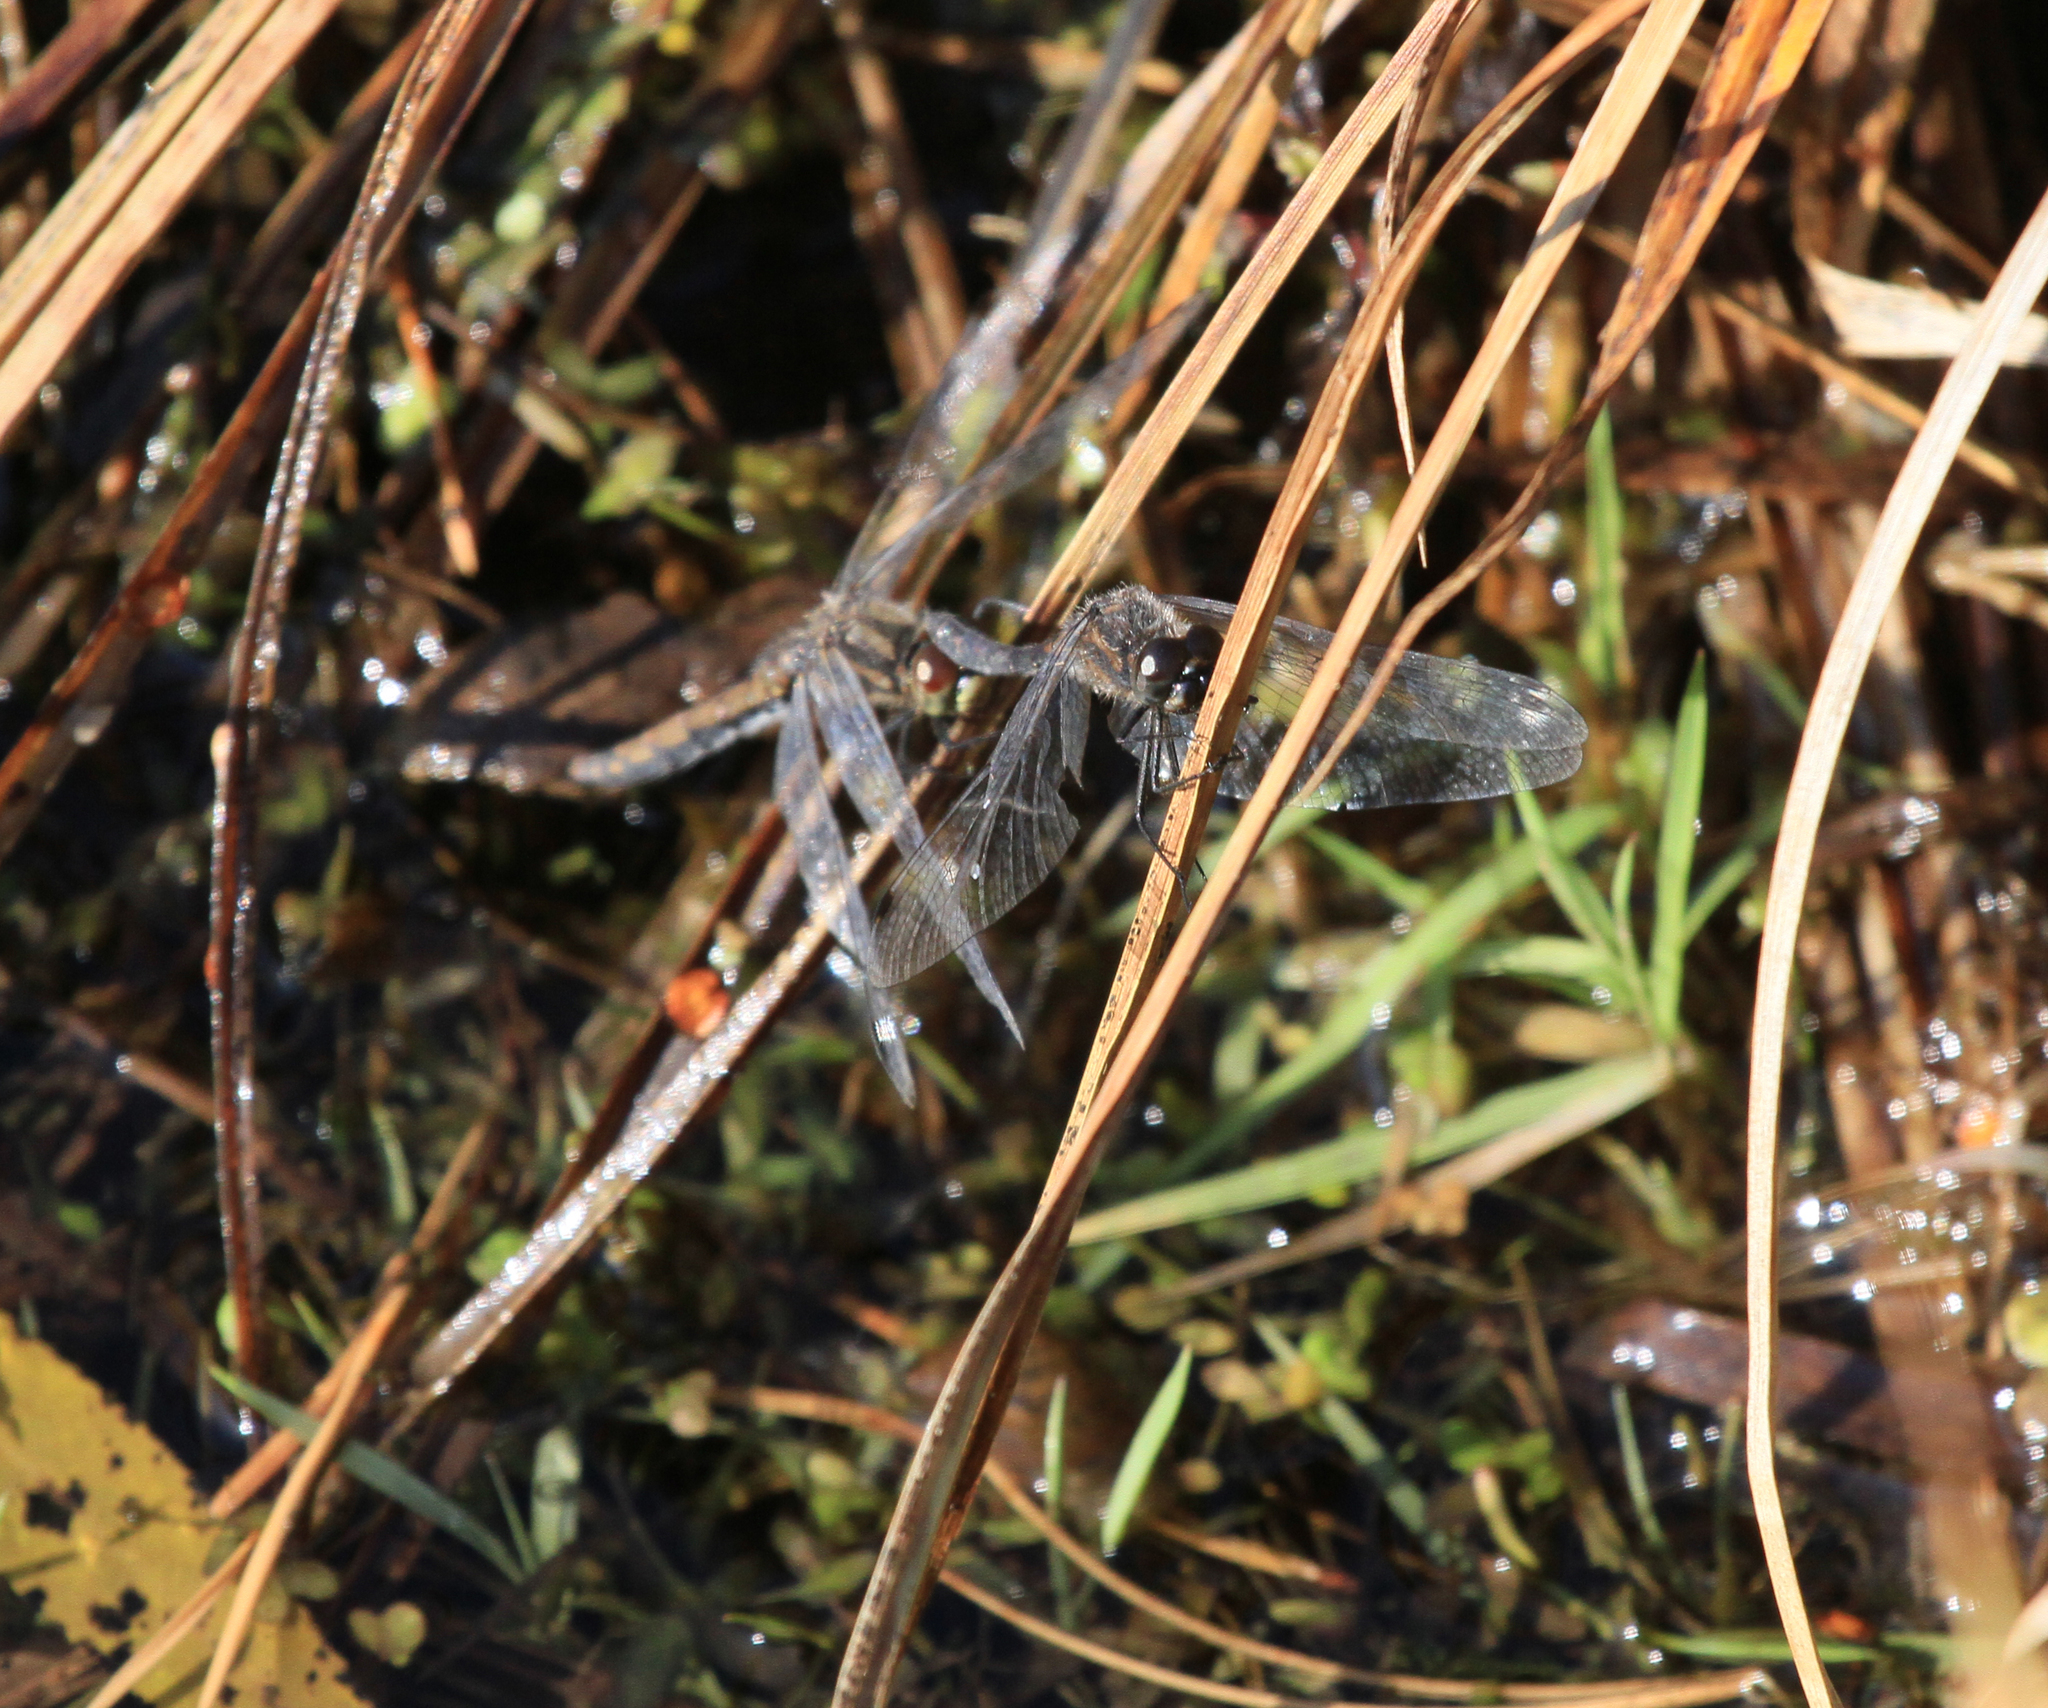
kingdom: Animalia
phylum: Arthropoda
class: Insecta
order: Odonata
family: Libellulidae
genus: Sympetrum
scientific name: Sympetrum danae
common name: Black darter
